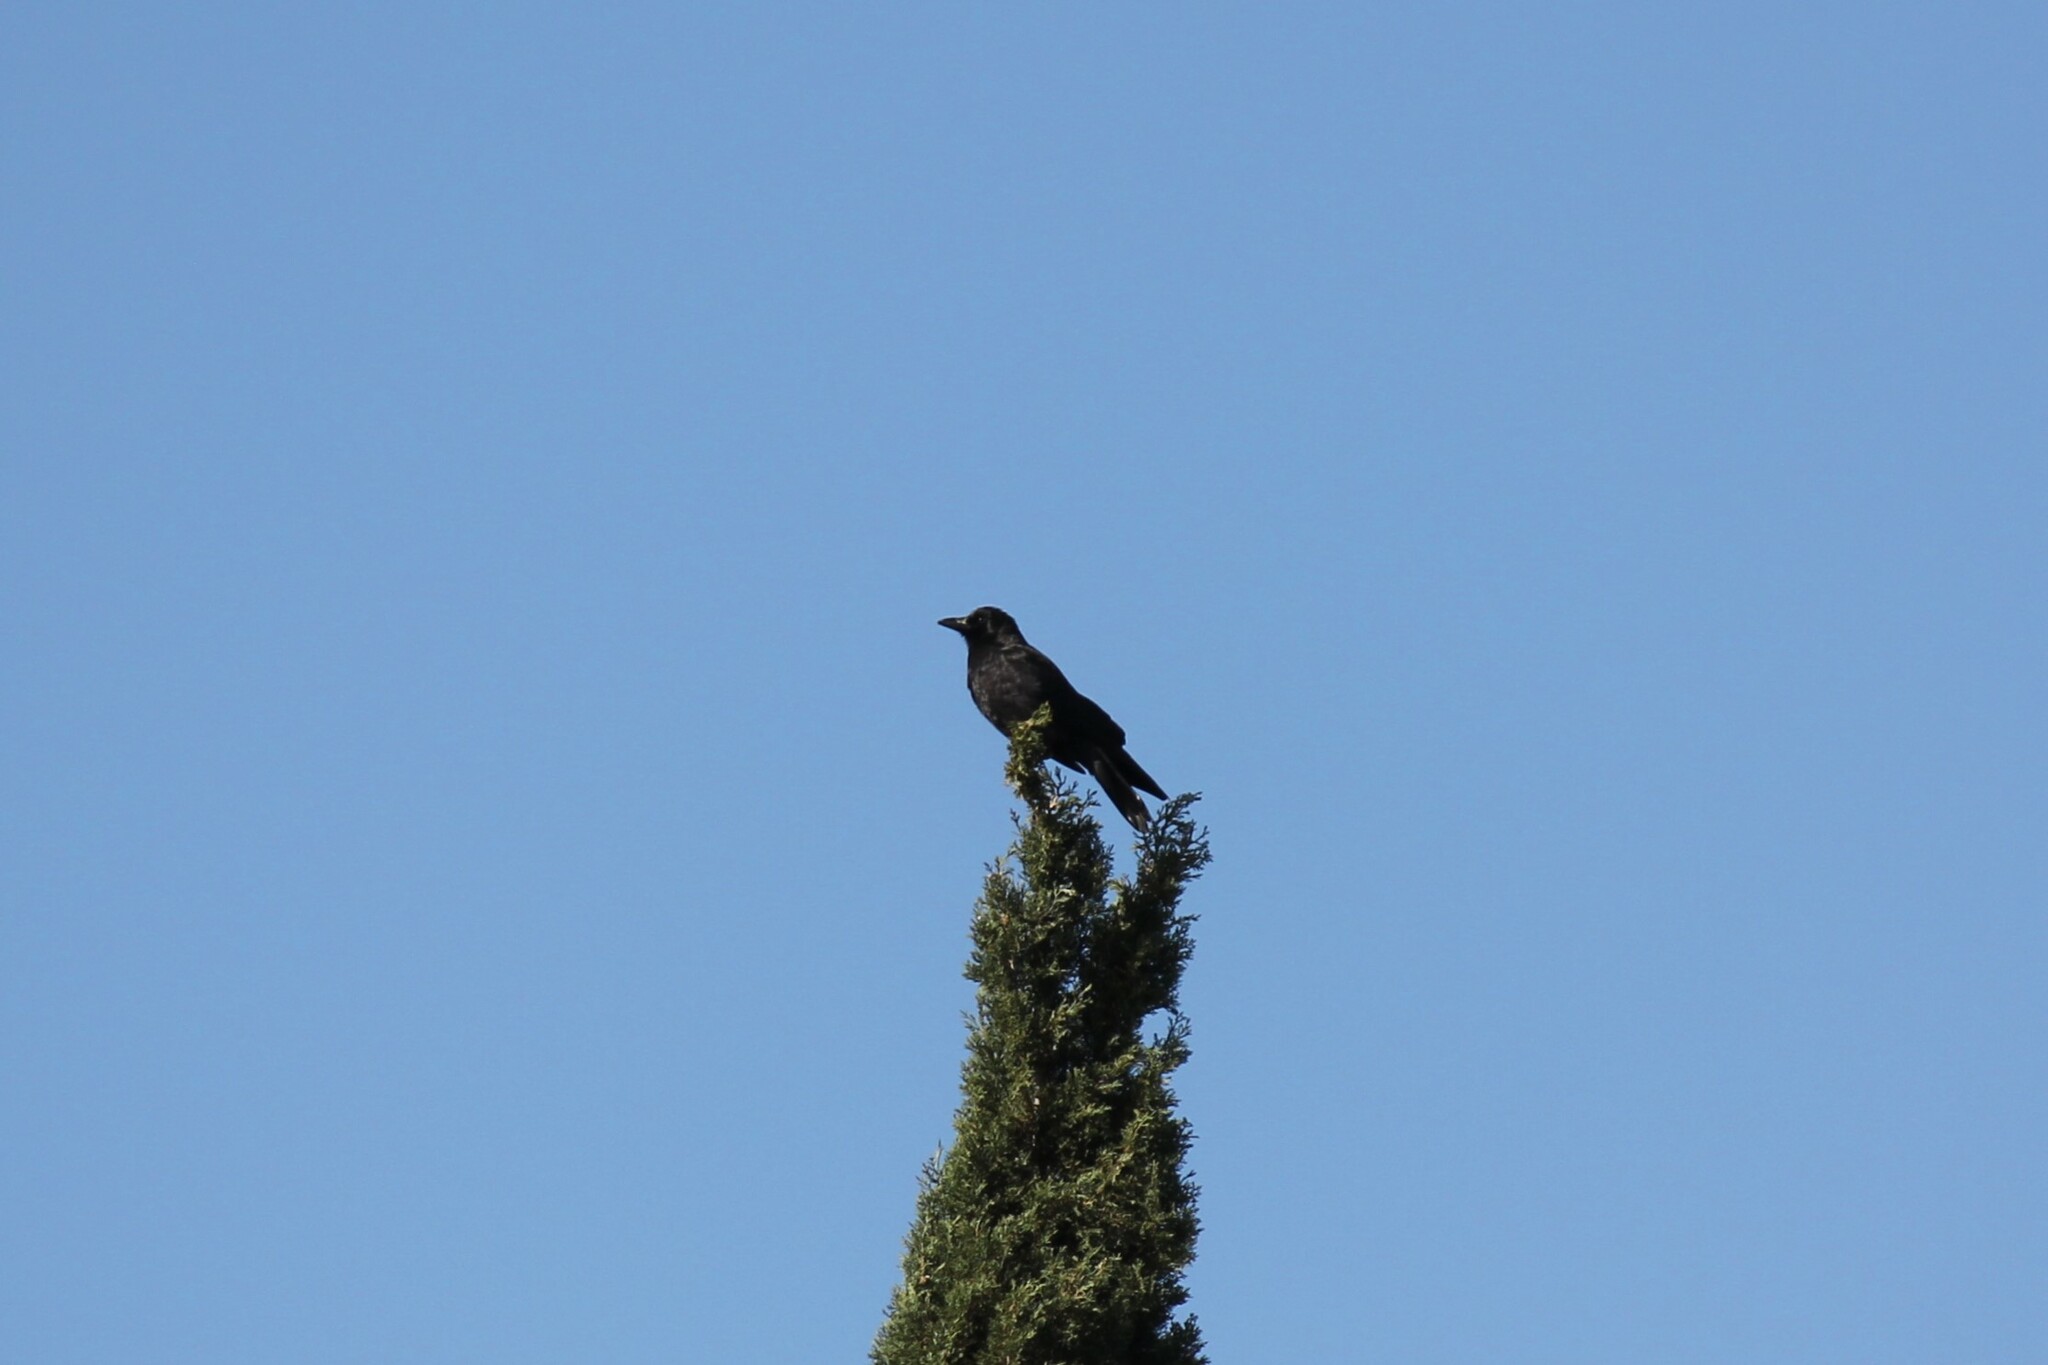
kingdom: Animalia
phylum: Chordata
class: Aves
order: Passeriformes
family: Corvidae
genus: Corvus
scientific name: Corvus brachyrhynchos
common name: American crow
